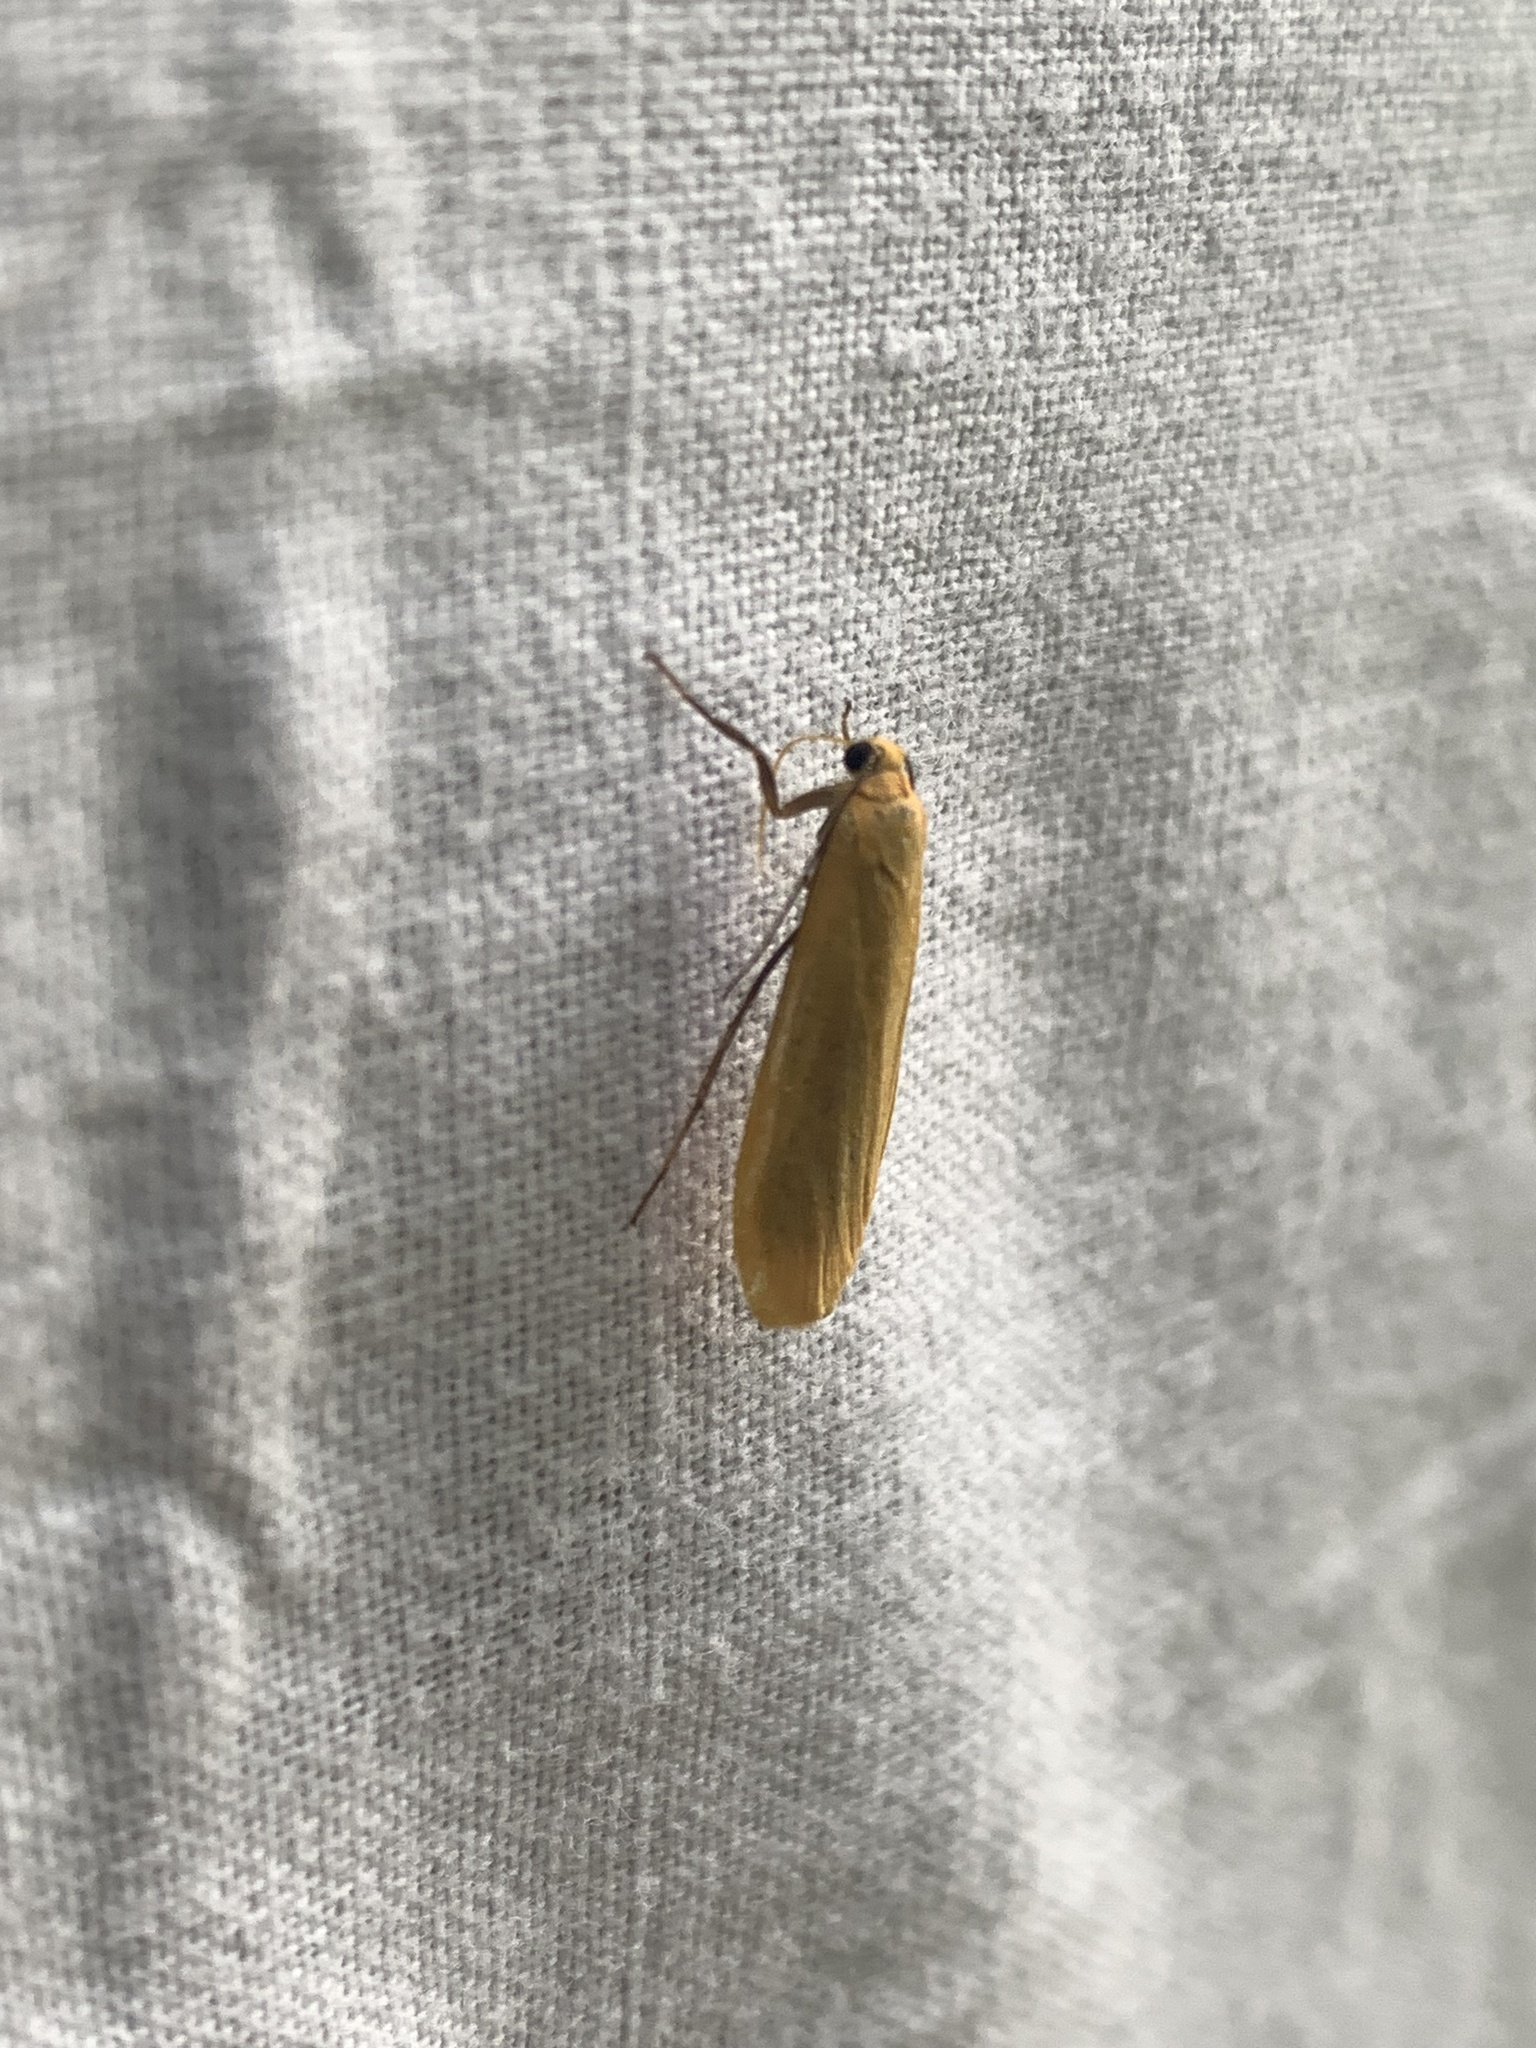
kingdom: Animalia
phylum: Arthropoda
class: Insecta
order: Lepidoptera
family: Erebidae
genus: Wittia
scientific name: Wittia sororcula
